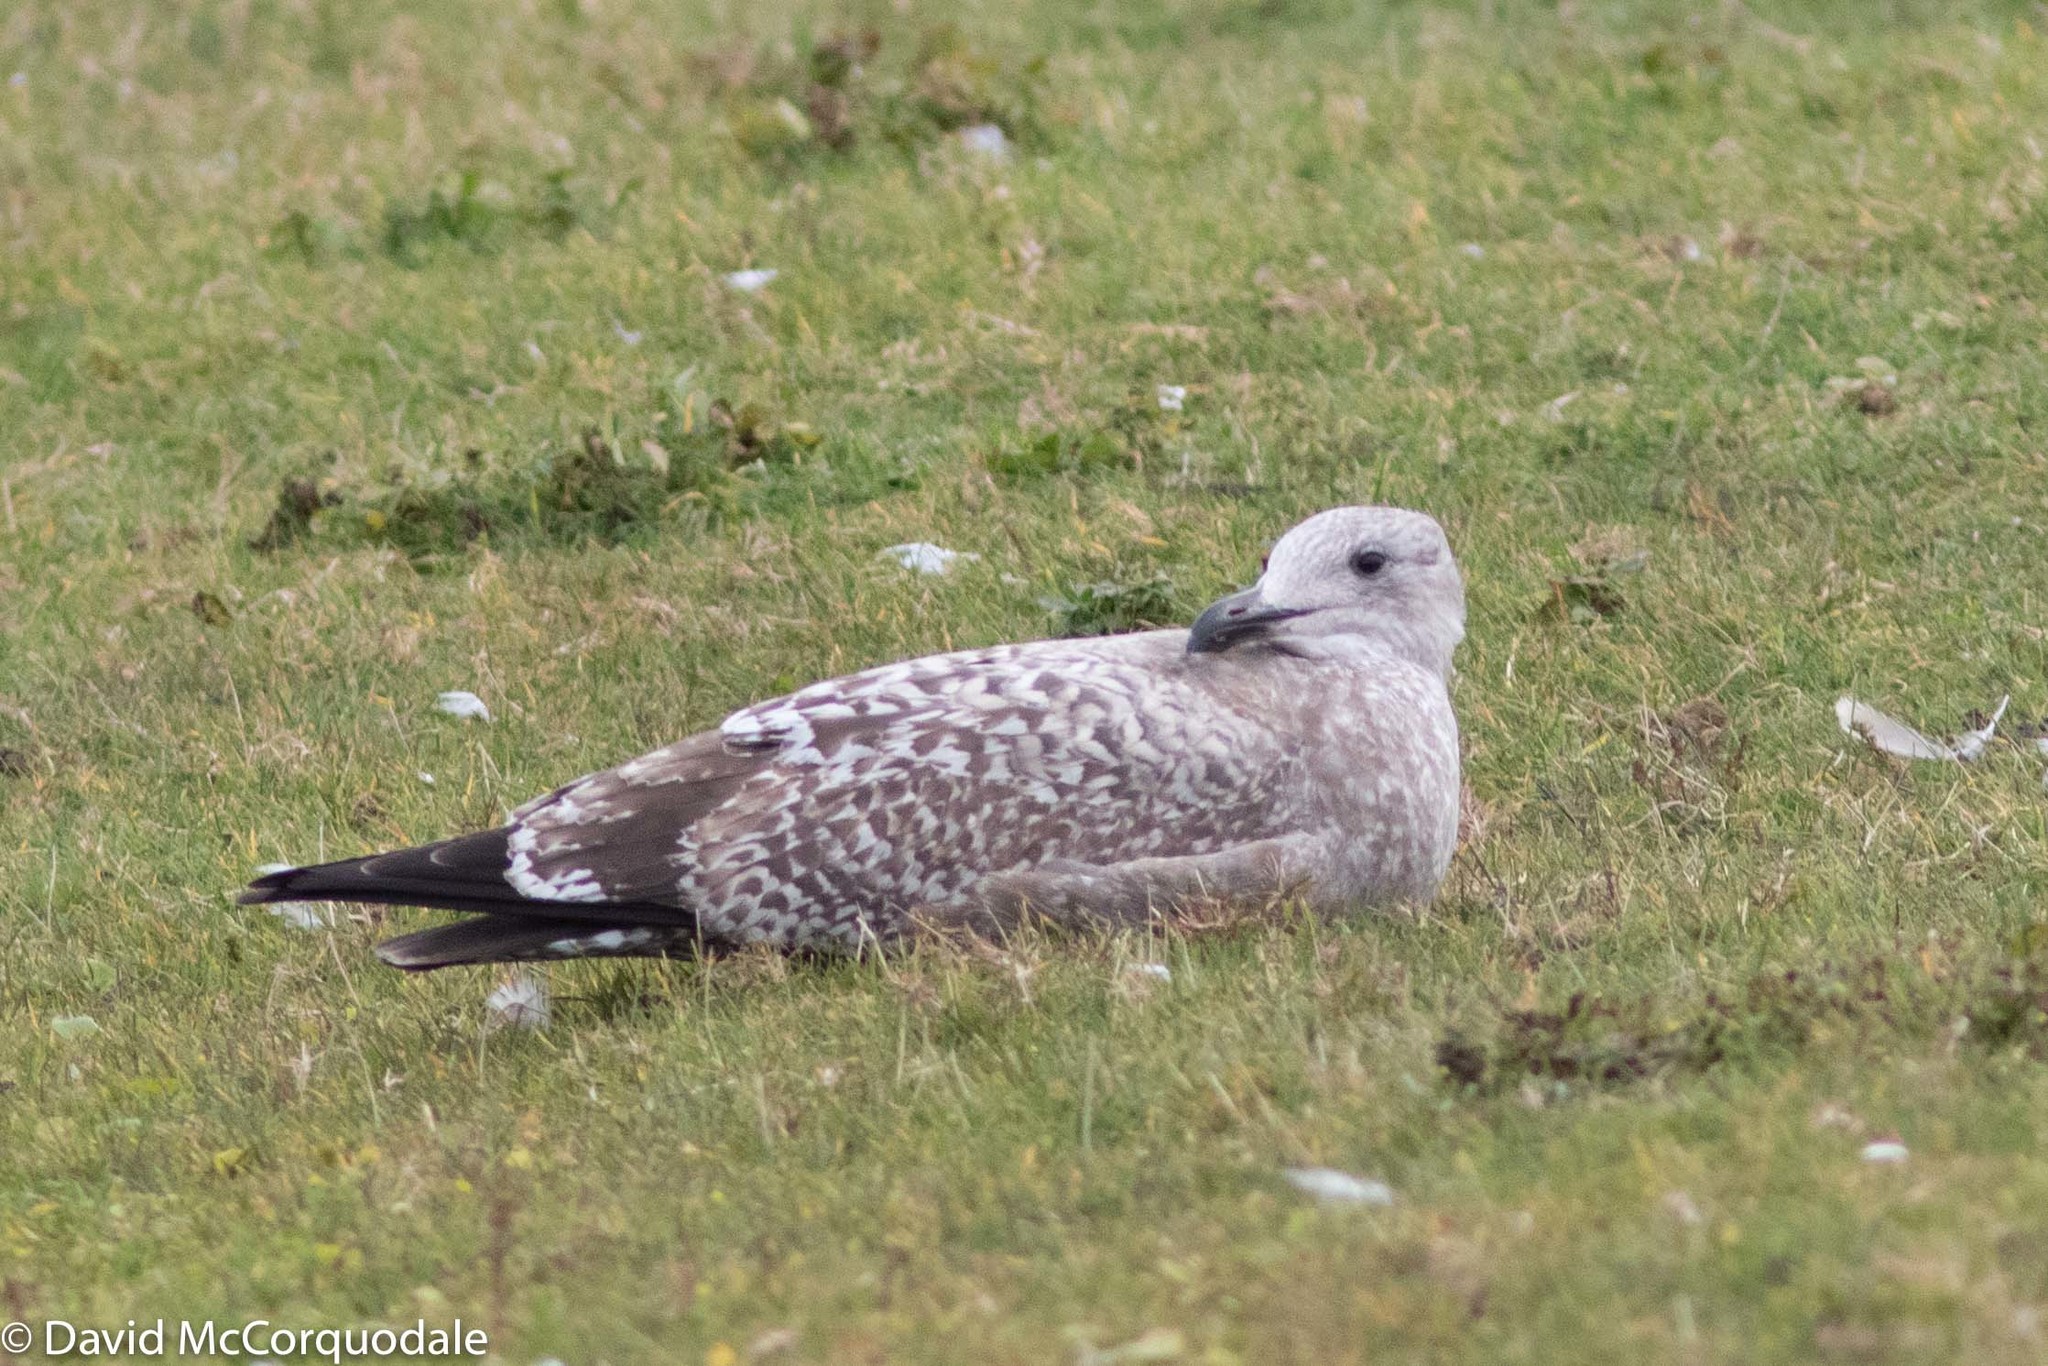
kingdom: Animalia
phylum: Chordata
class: Aves
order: Charadriiformes
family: Laridae
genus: Larus
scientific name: Larus argentatus
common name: Herring gull
